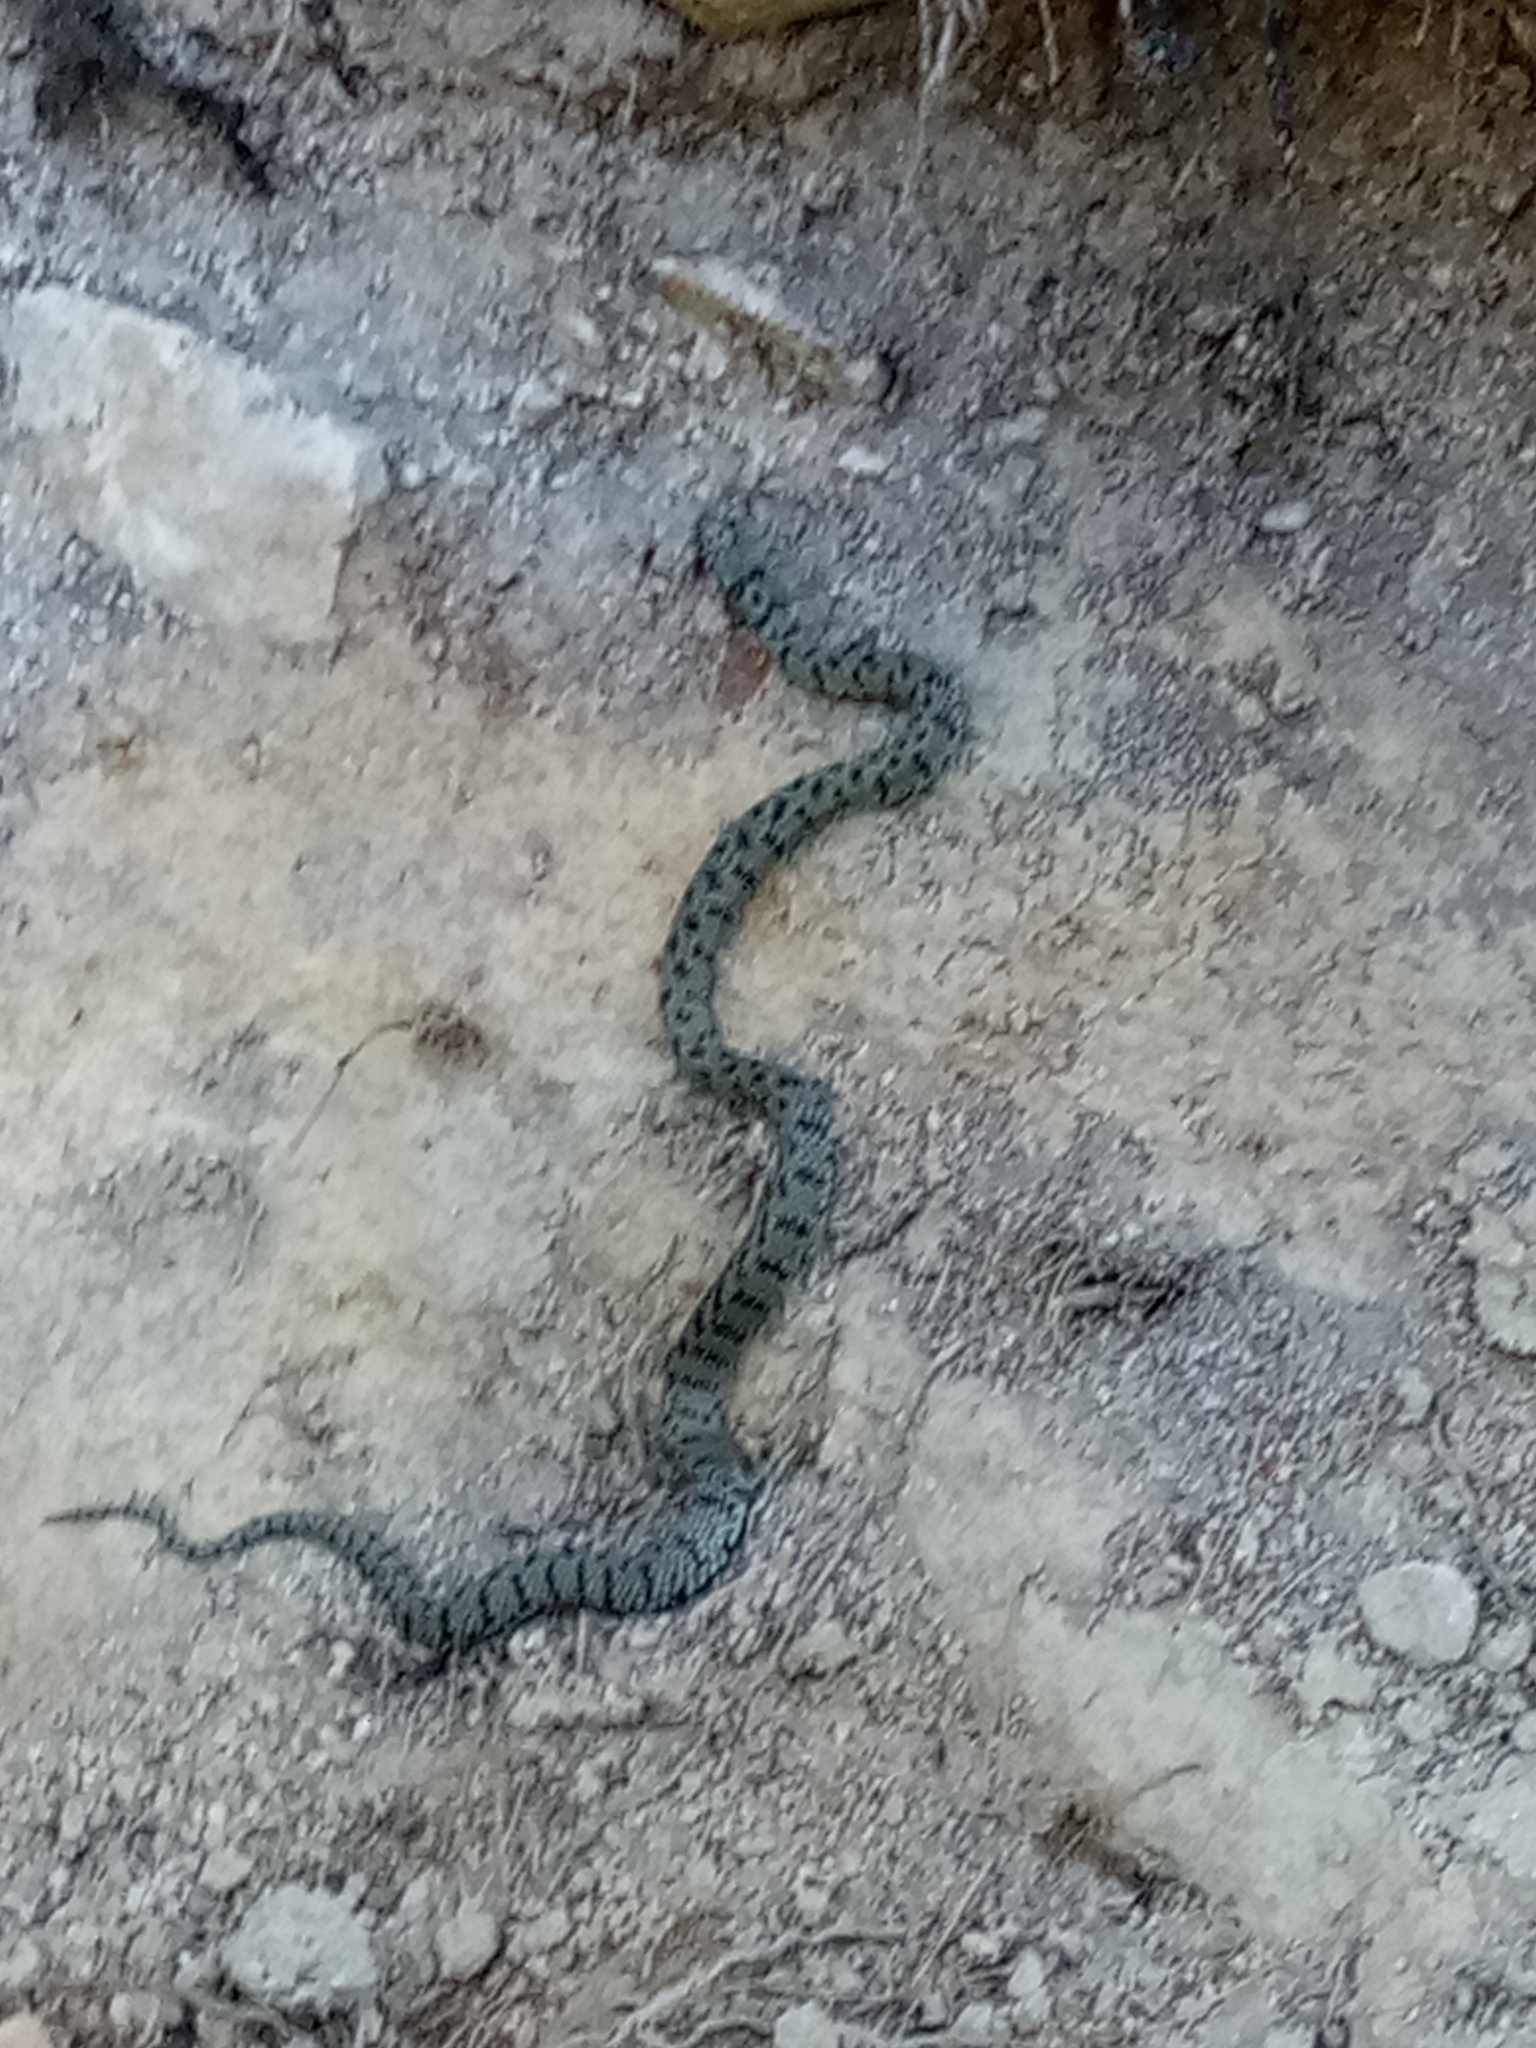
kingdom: Animalia
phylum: Chordata
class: Squamata
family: Colubridae
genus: Natrix
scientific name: Natrix helvetica
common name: Banded grass snake
